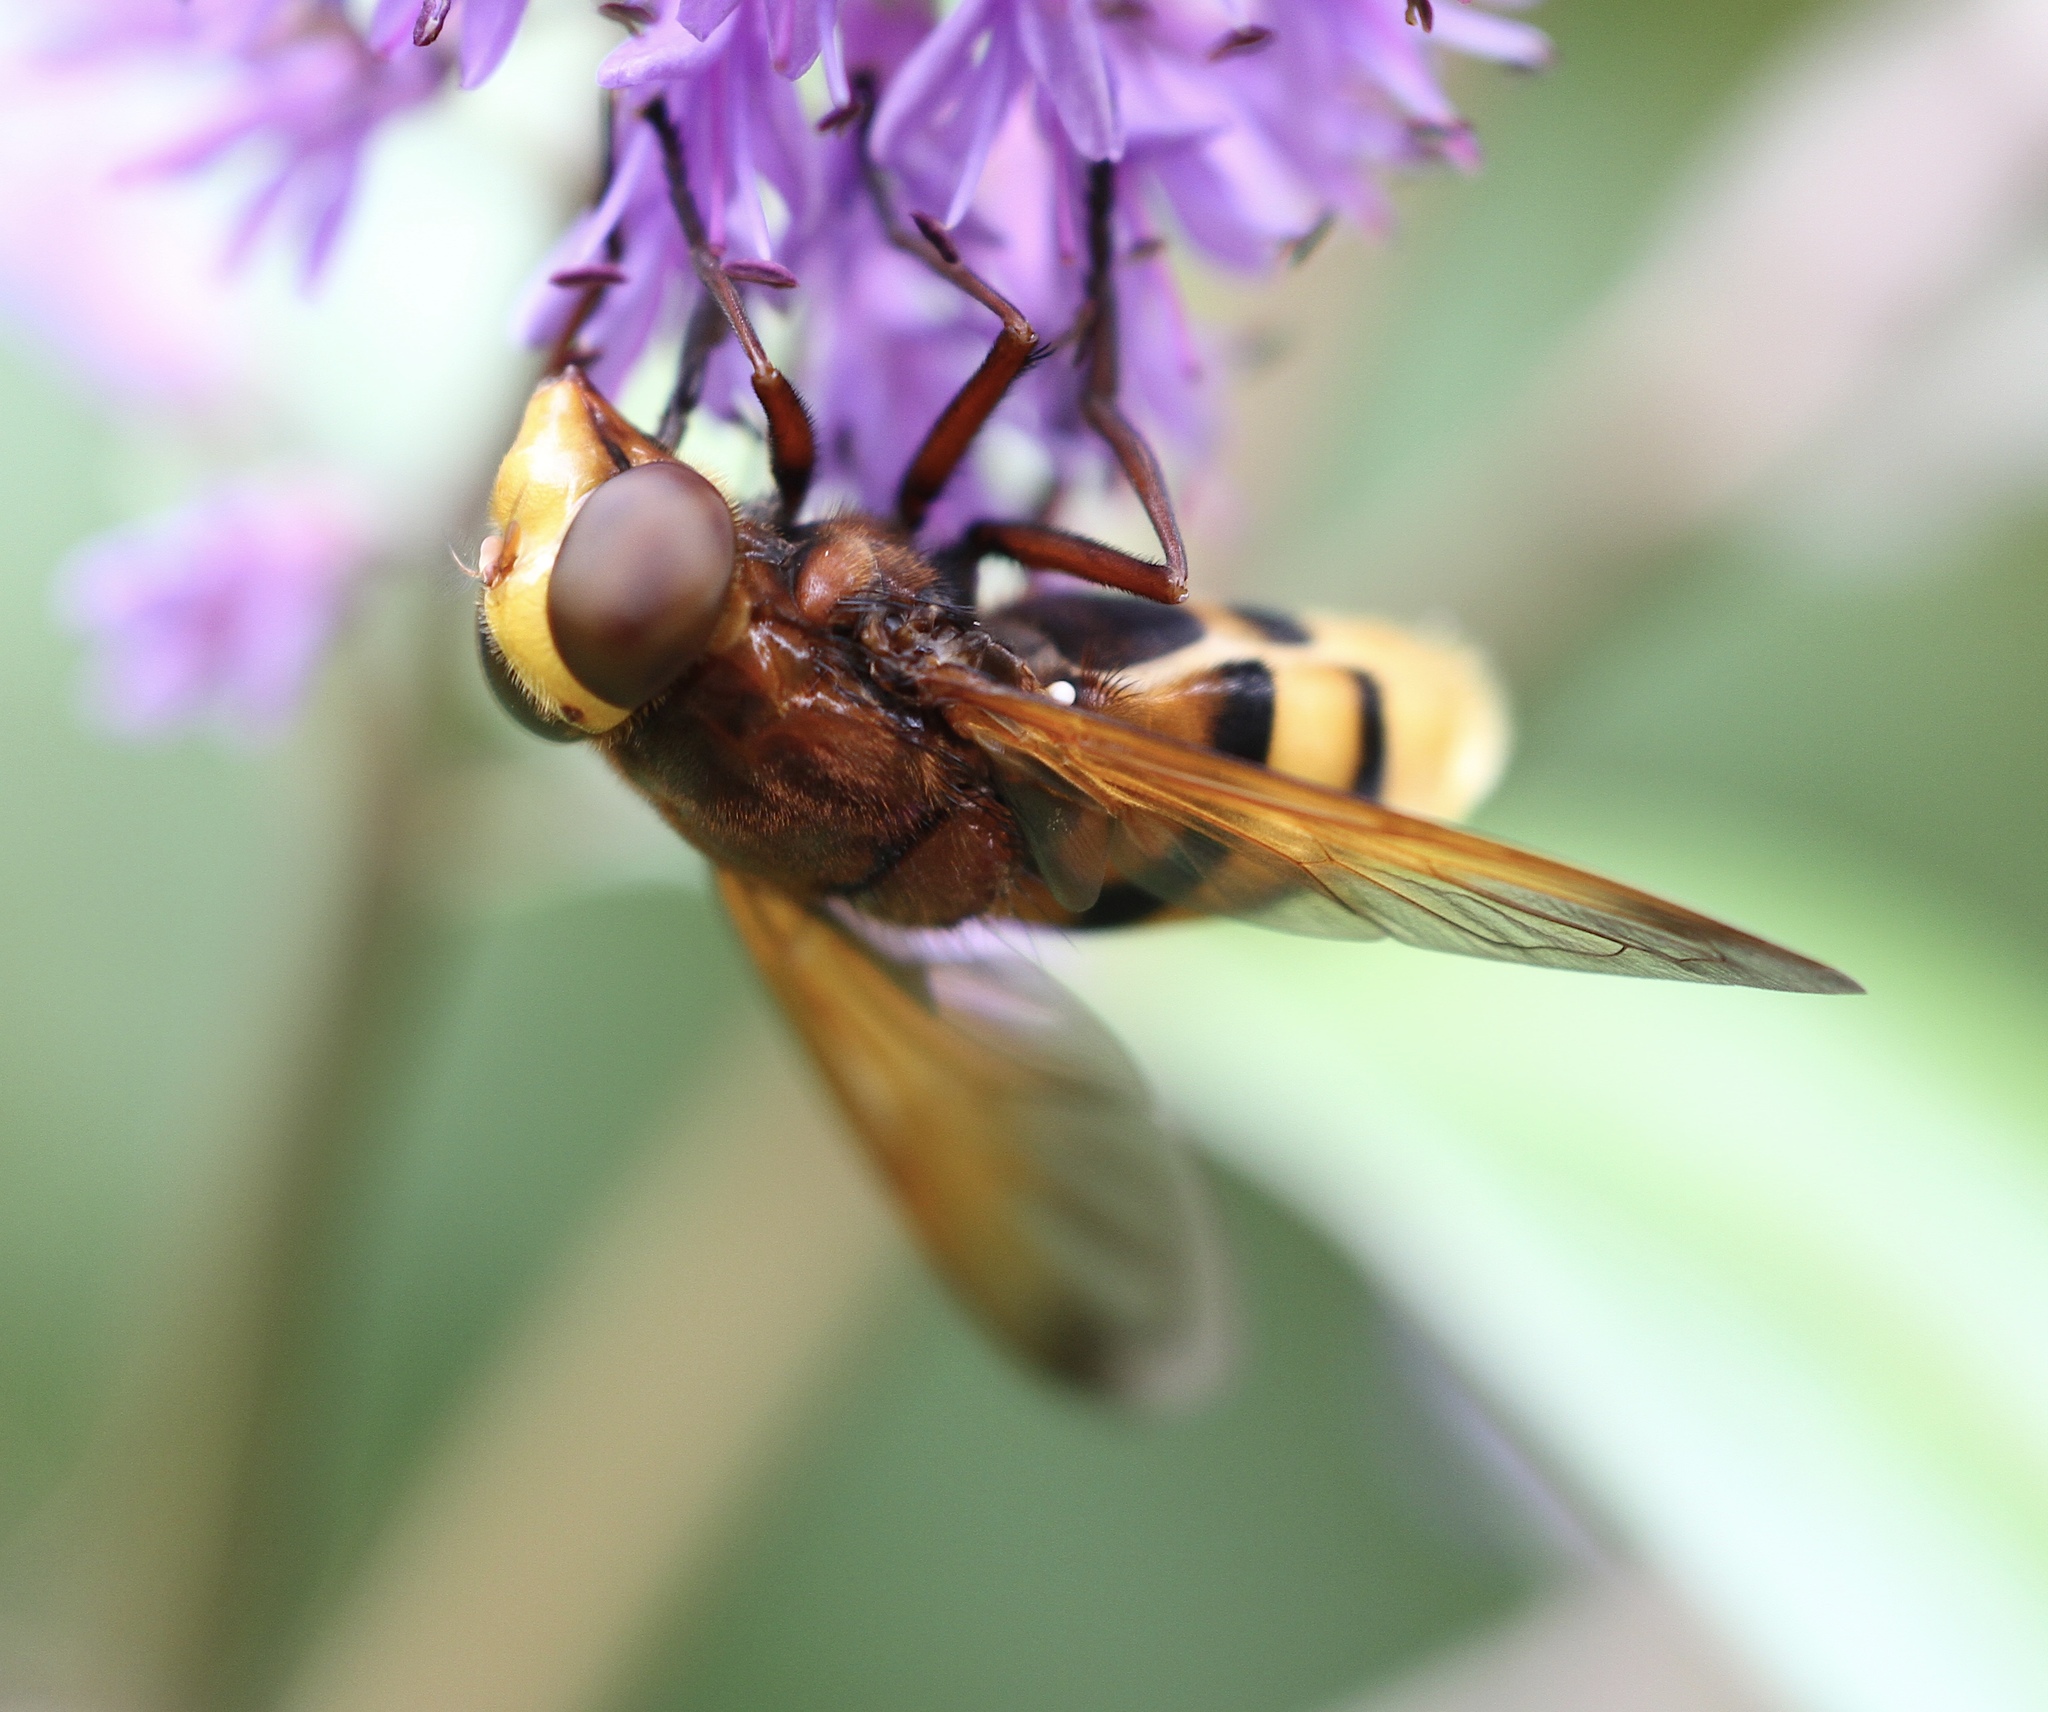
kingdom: Animalia
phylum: Arthropoda
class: Insecta
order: Diptera
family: Syrphidae
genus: Volucella
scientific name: Volucella zonaria
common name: Hornet hoverfly
